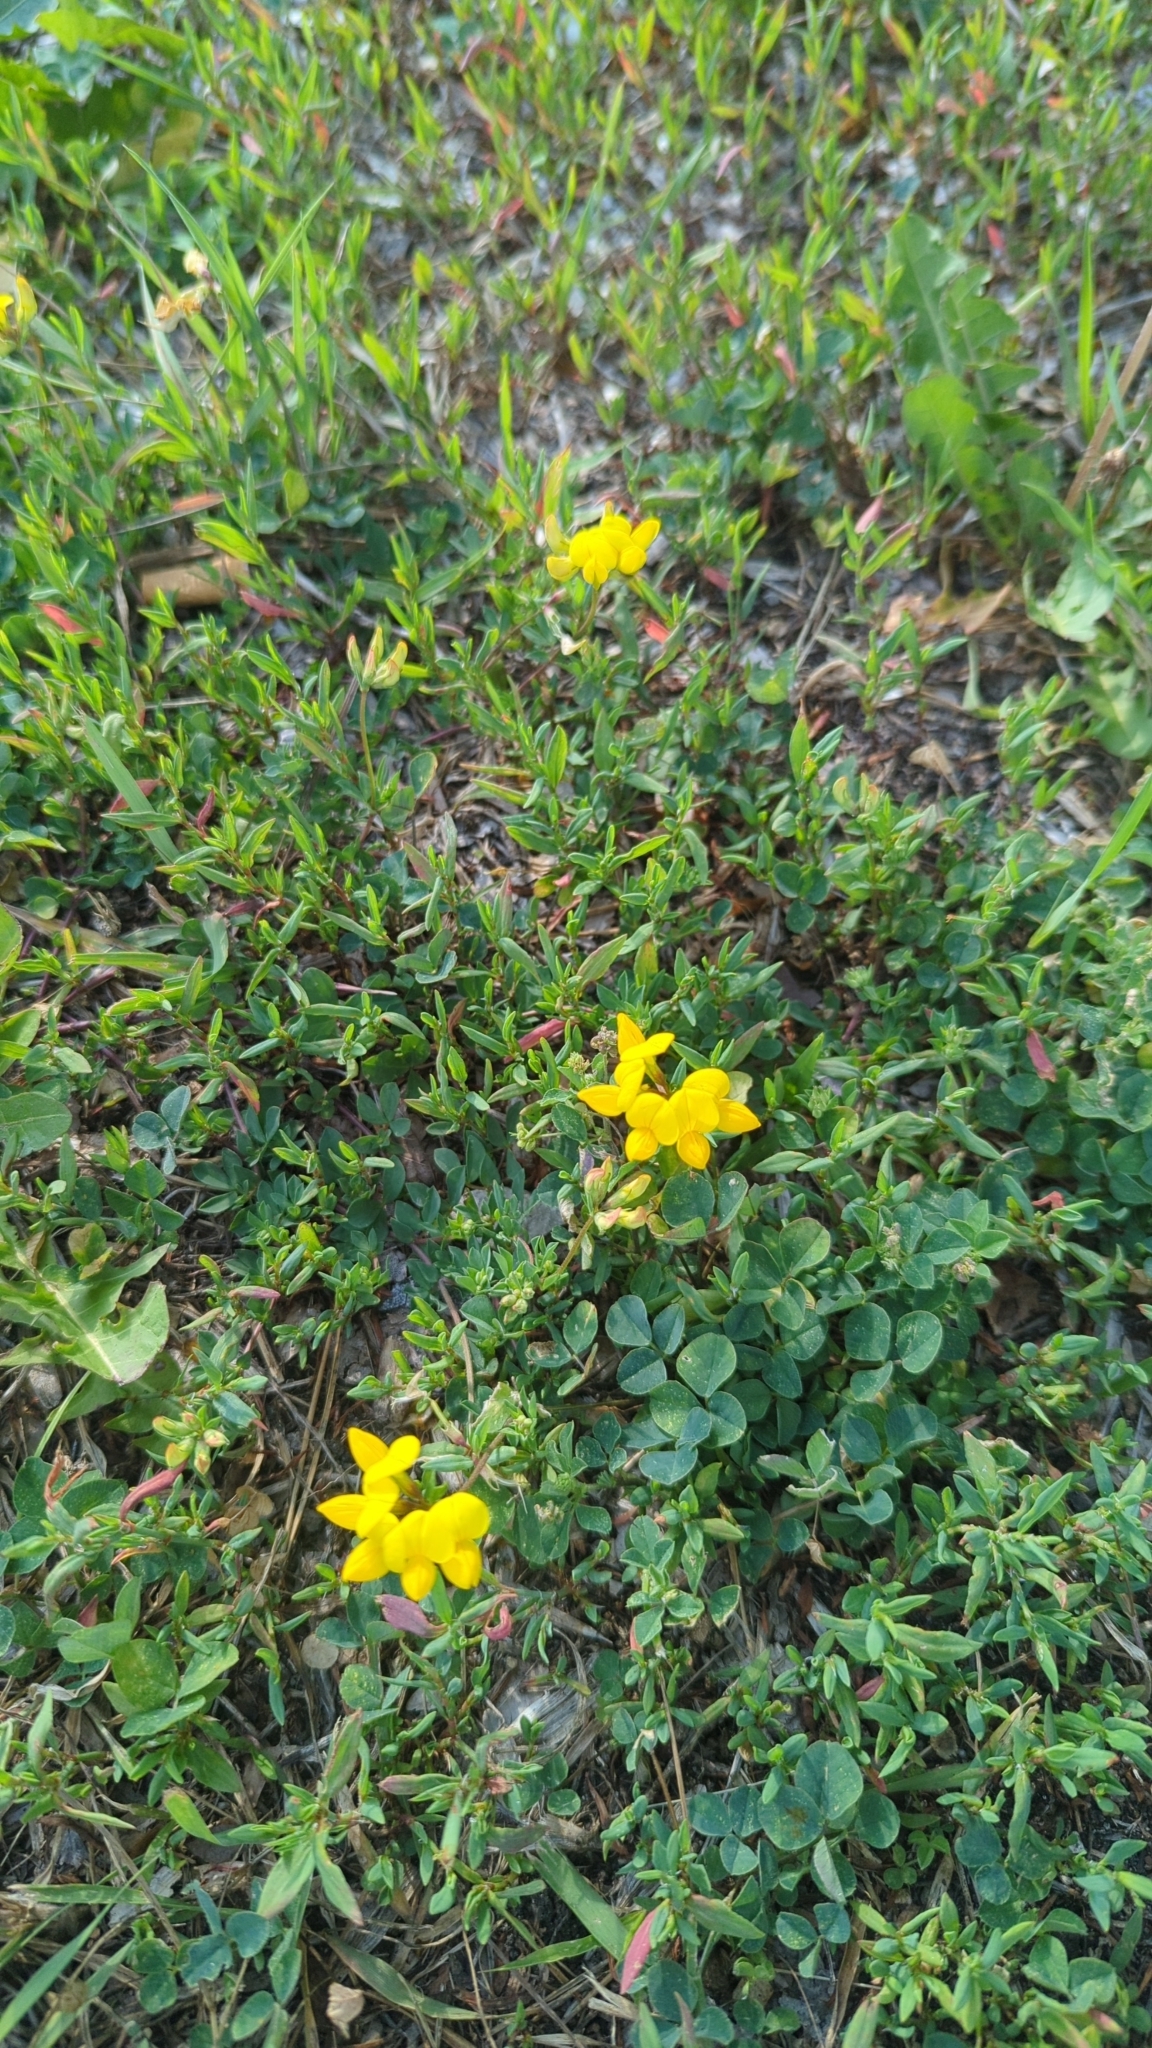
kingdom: Plantae
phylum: Tracheophyta
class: Magnoliopsida
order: Fabales
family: Fabaceae
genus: Lotus
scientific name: Lotus corniculatus
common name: Common bird's-foot-trefoil
